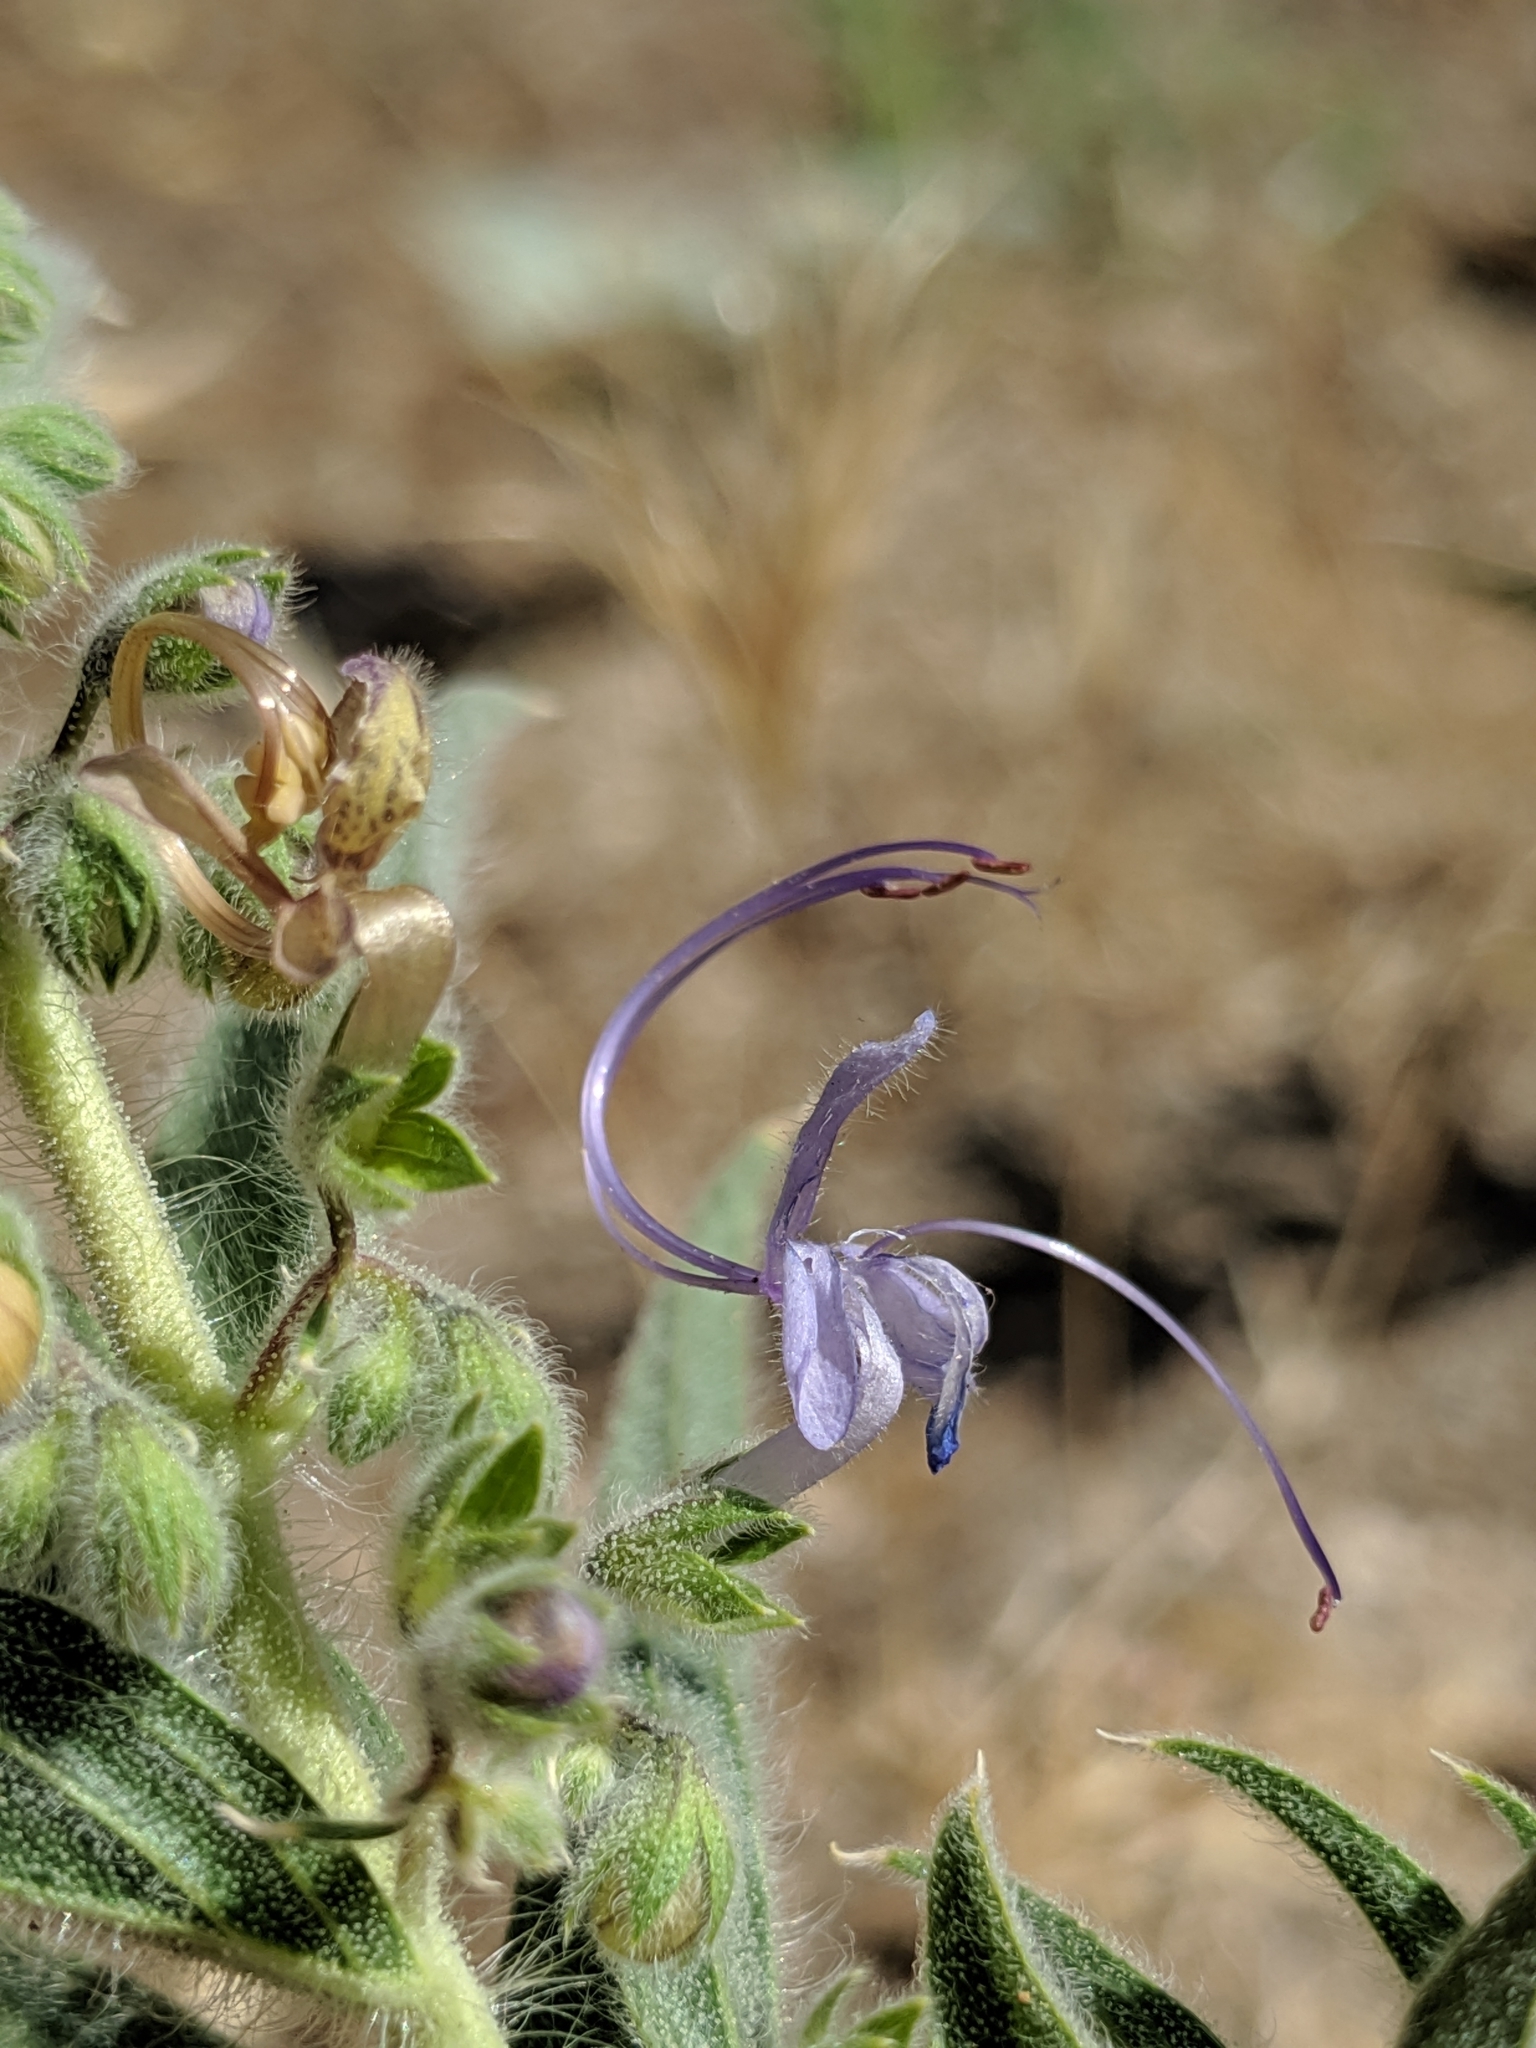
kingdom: Plantae
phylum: Tracheophyta
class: Magnoliopsida
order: Lamiales
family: Lamiaceae
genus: Trichostema
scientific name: Trichostema lanceolatum
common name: Vinegar-weed
